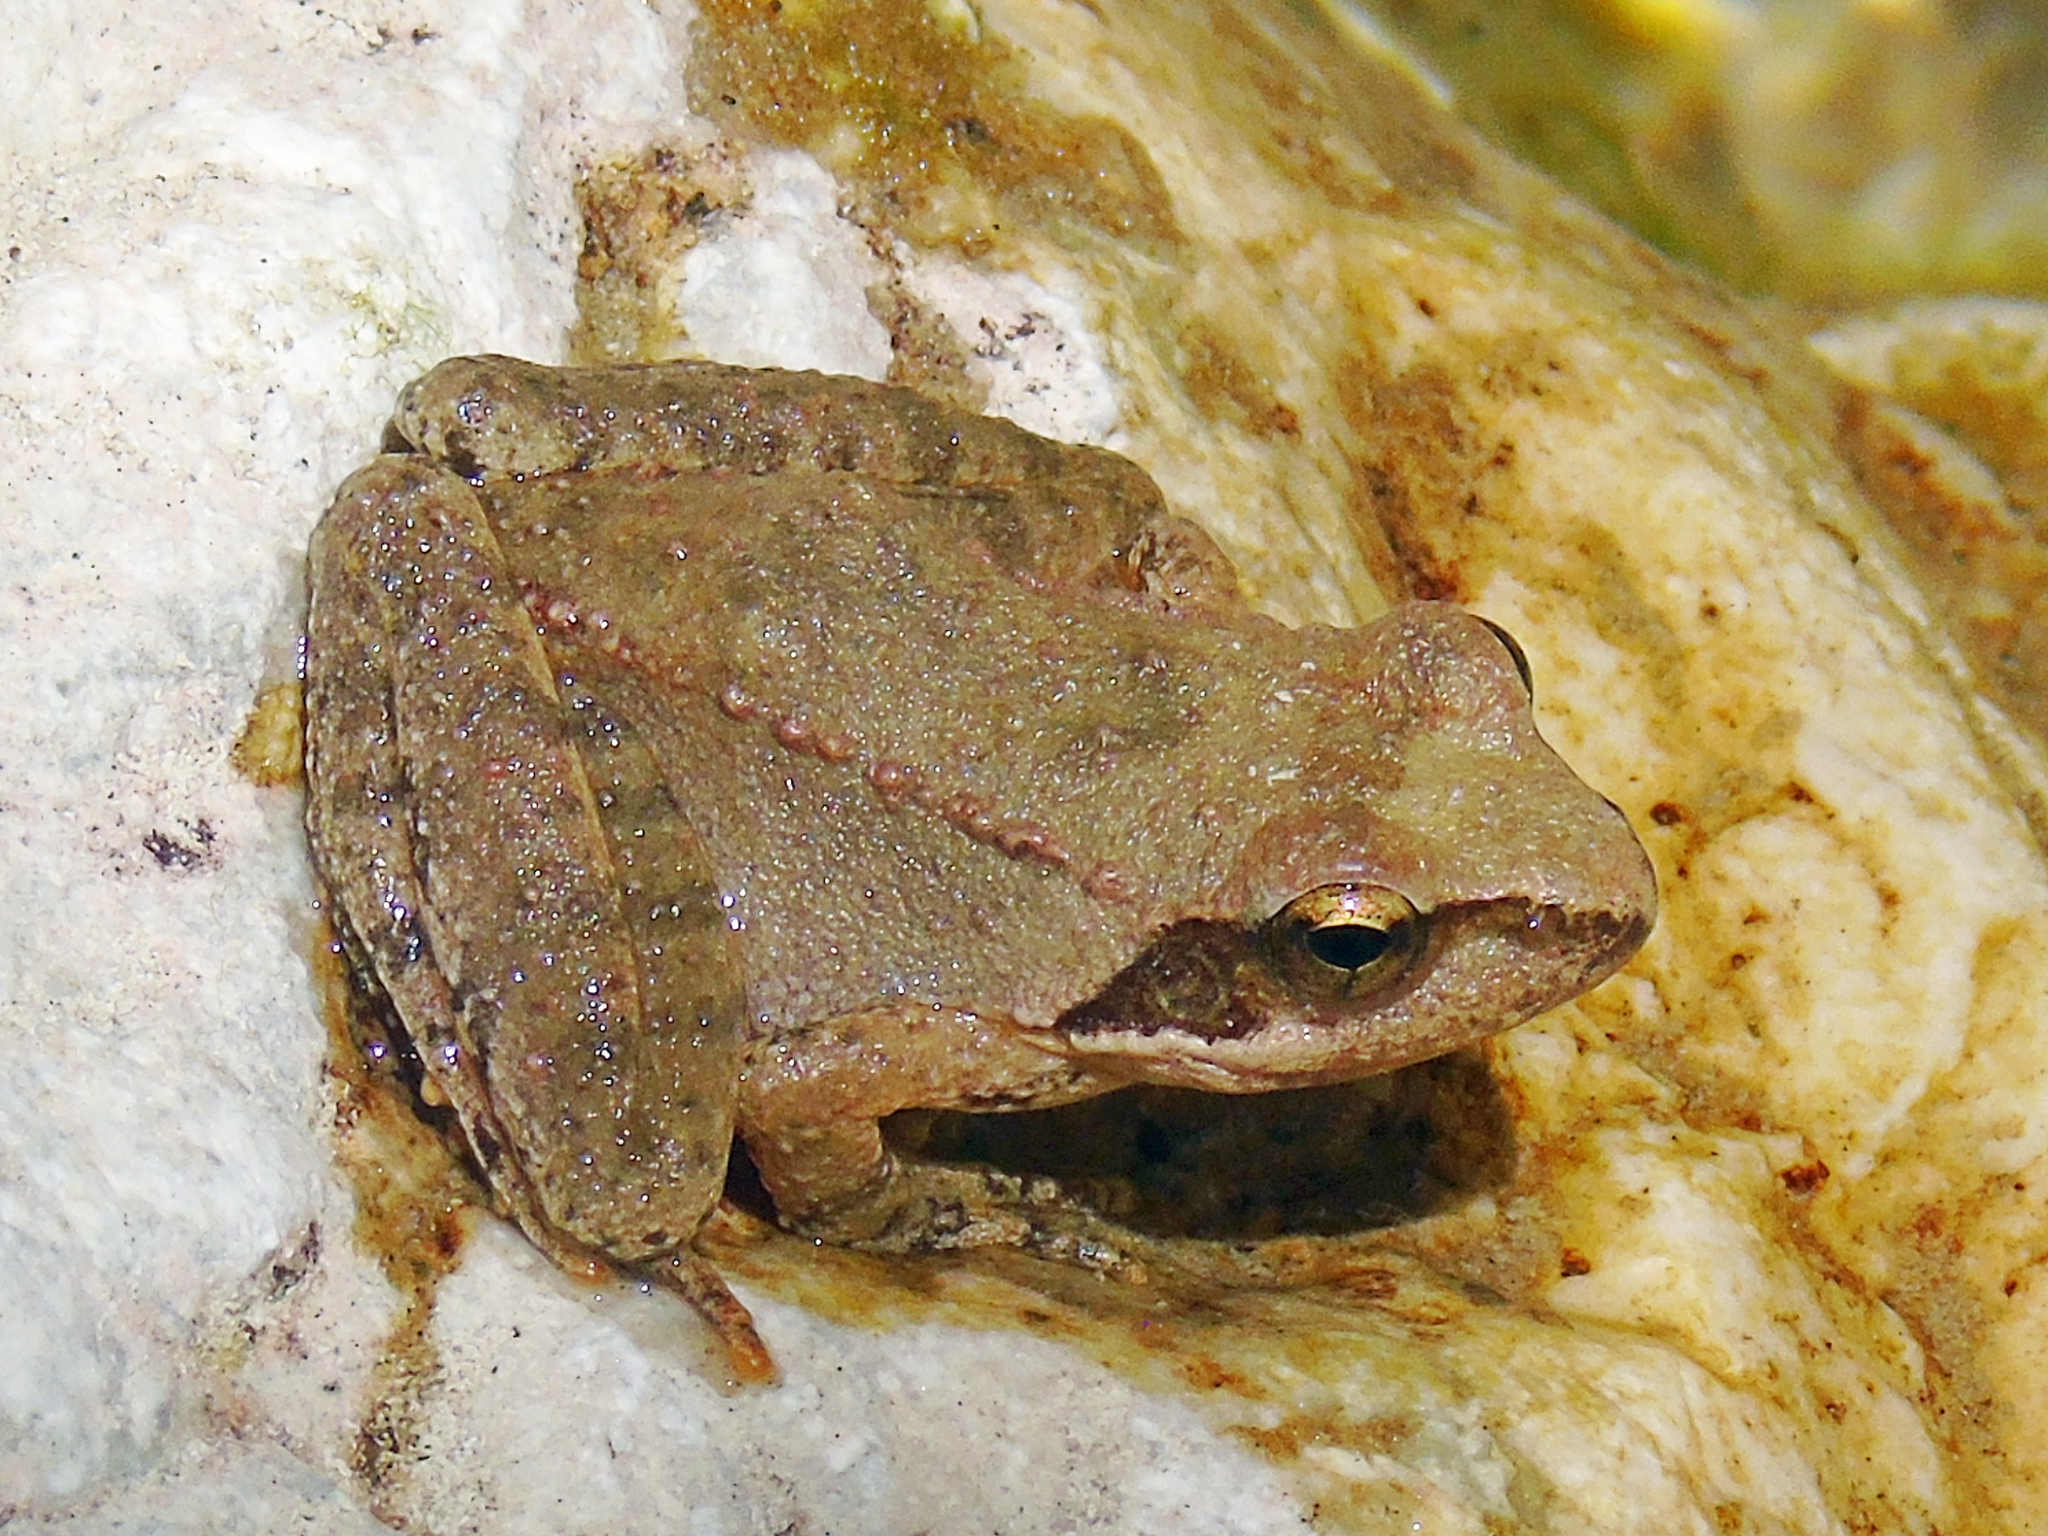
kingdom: Animalia
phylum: Chordata
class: Amphibia
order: Anura
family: Ranidae
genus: Rana
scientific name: Rana graeca
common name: Greek stream frog
